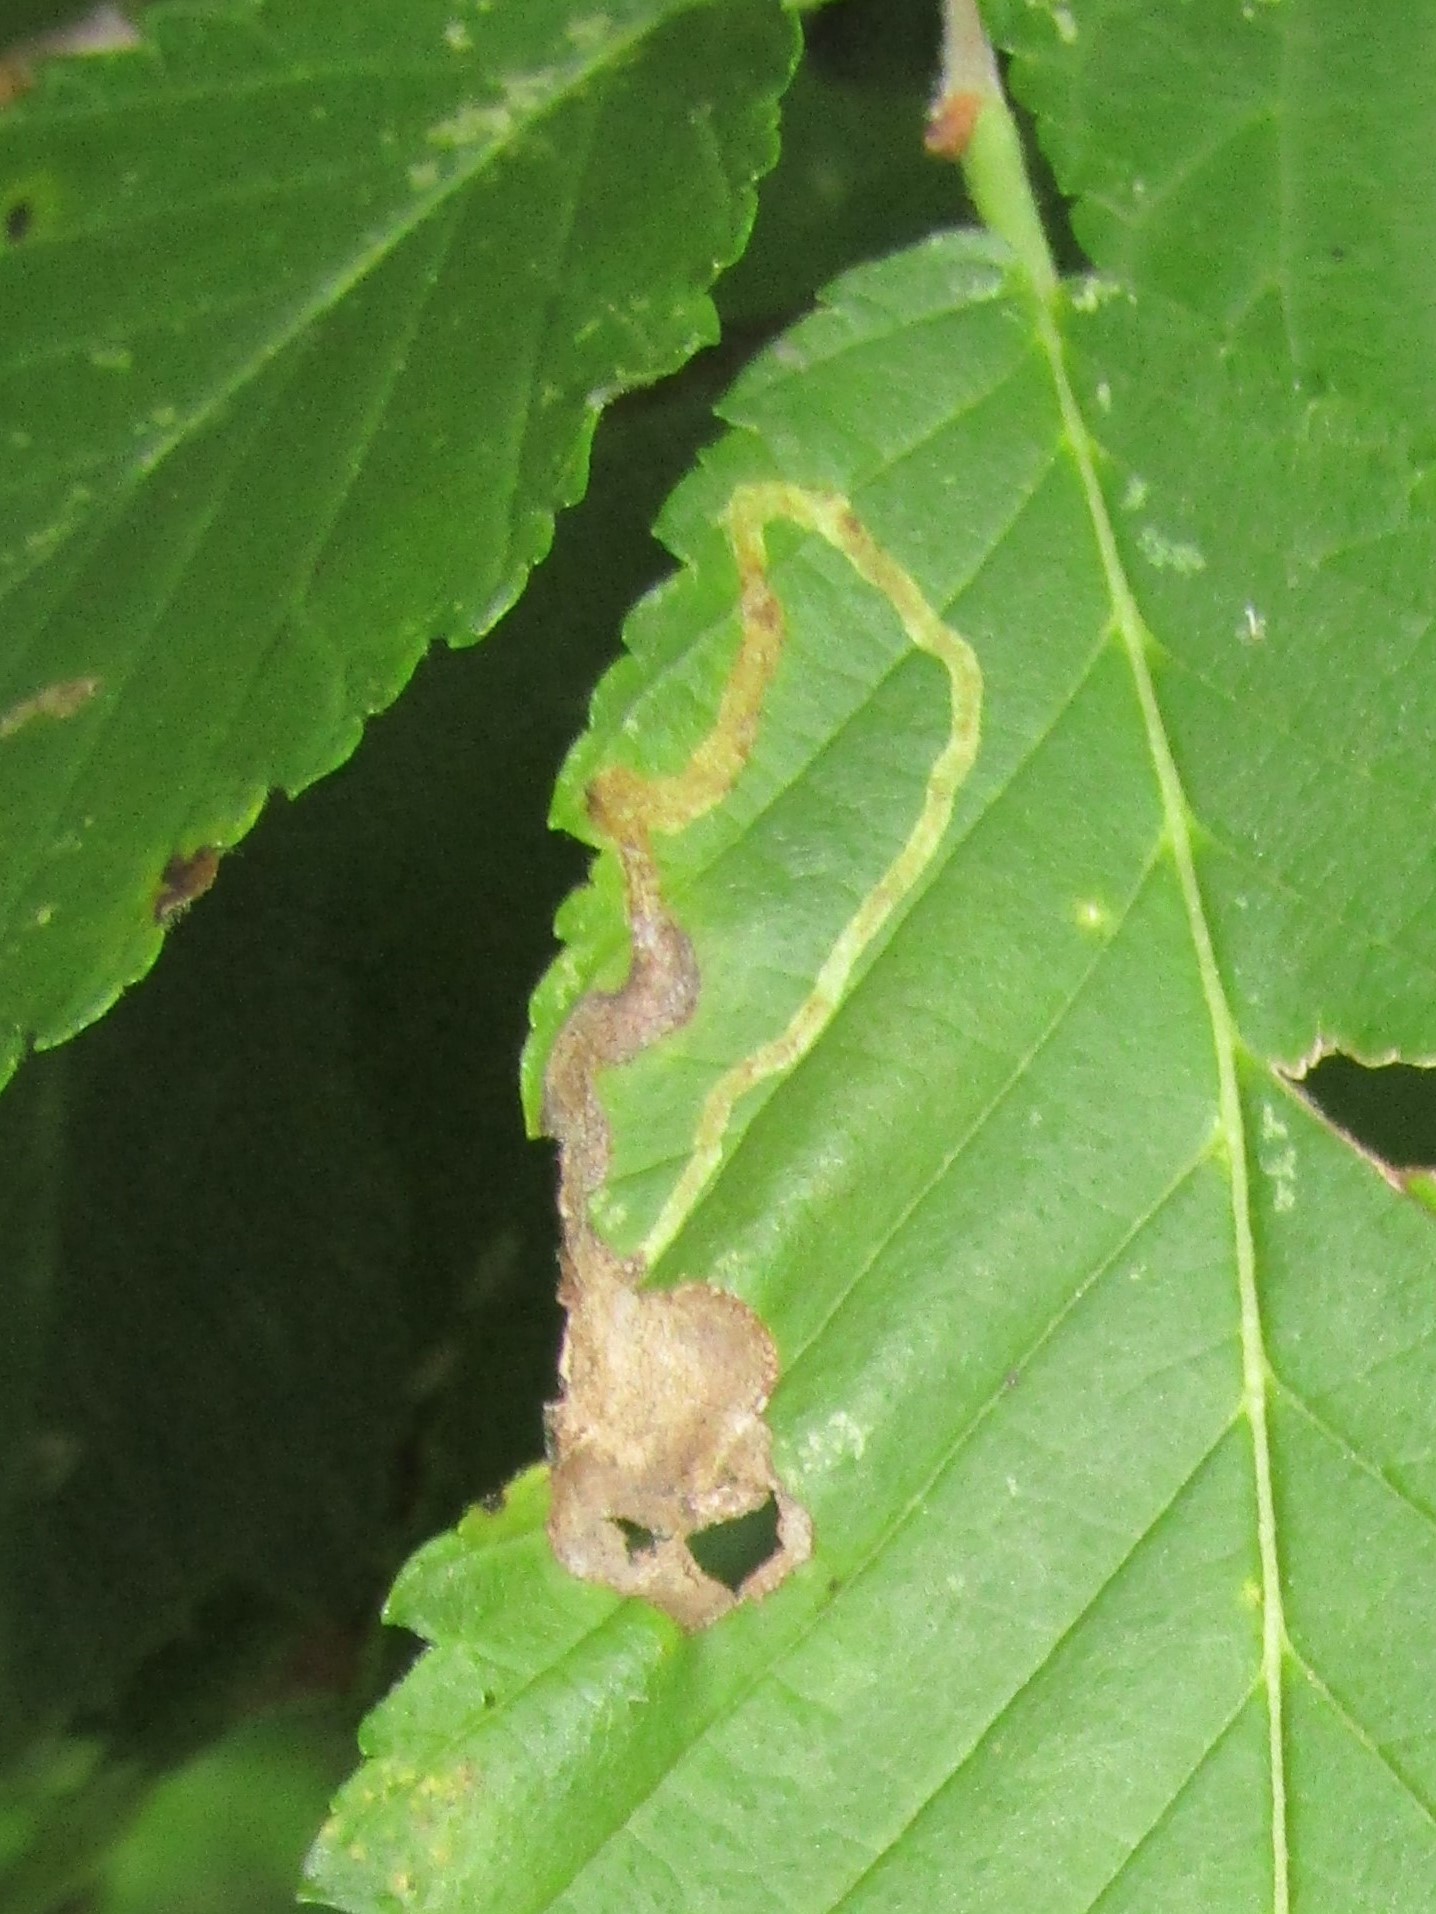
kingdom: Animalia
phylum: Arthropoda
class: Insecta
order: Diptera
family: Agromyzidae
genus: Agromyza
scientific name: Agromyza aristata
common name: Elm agromyzid leafminer
